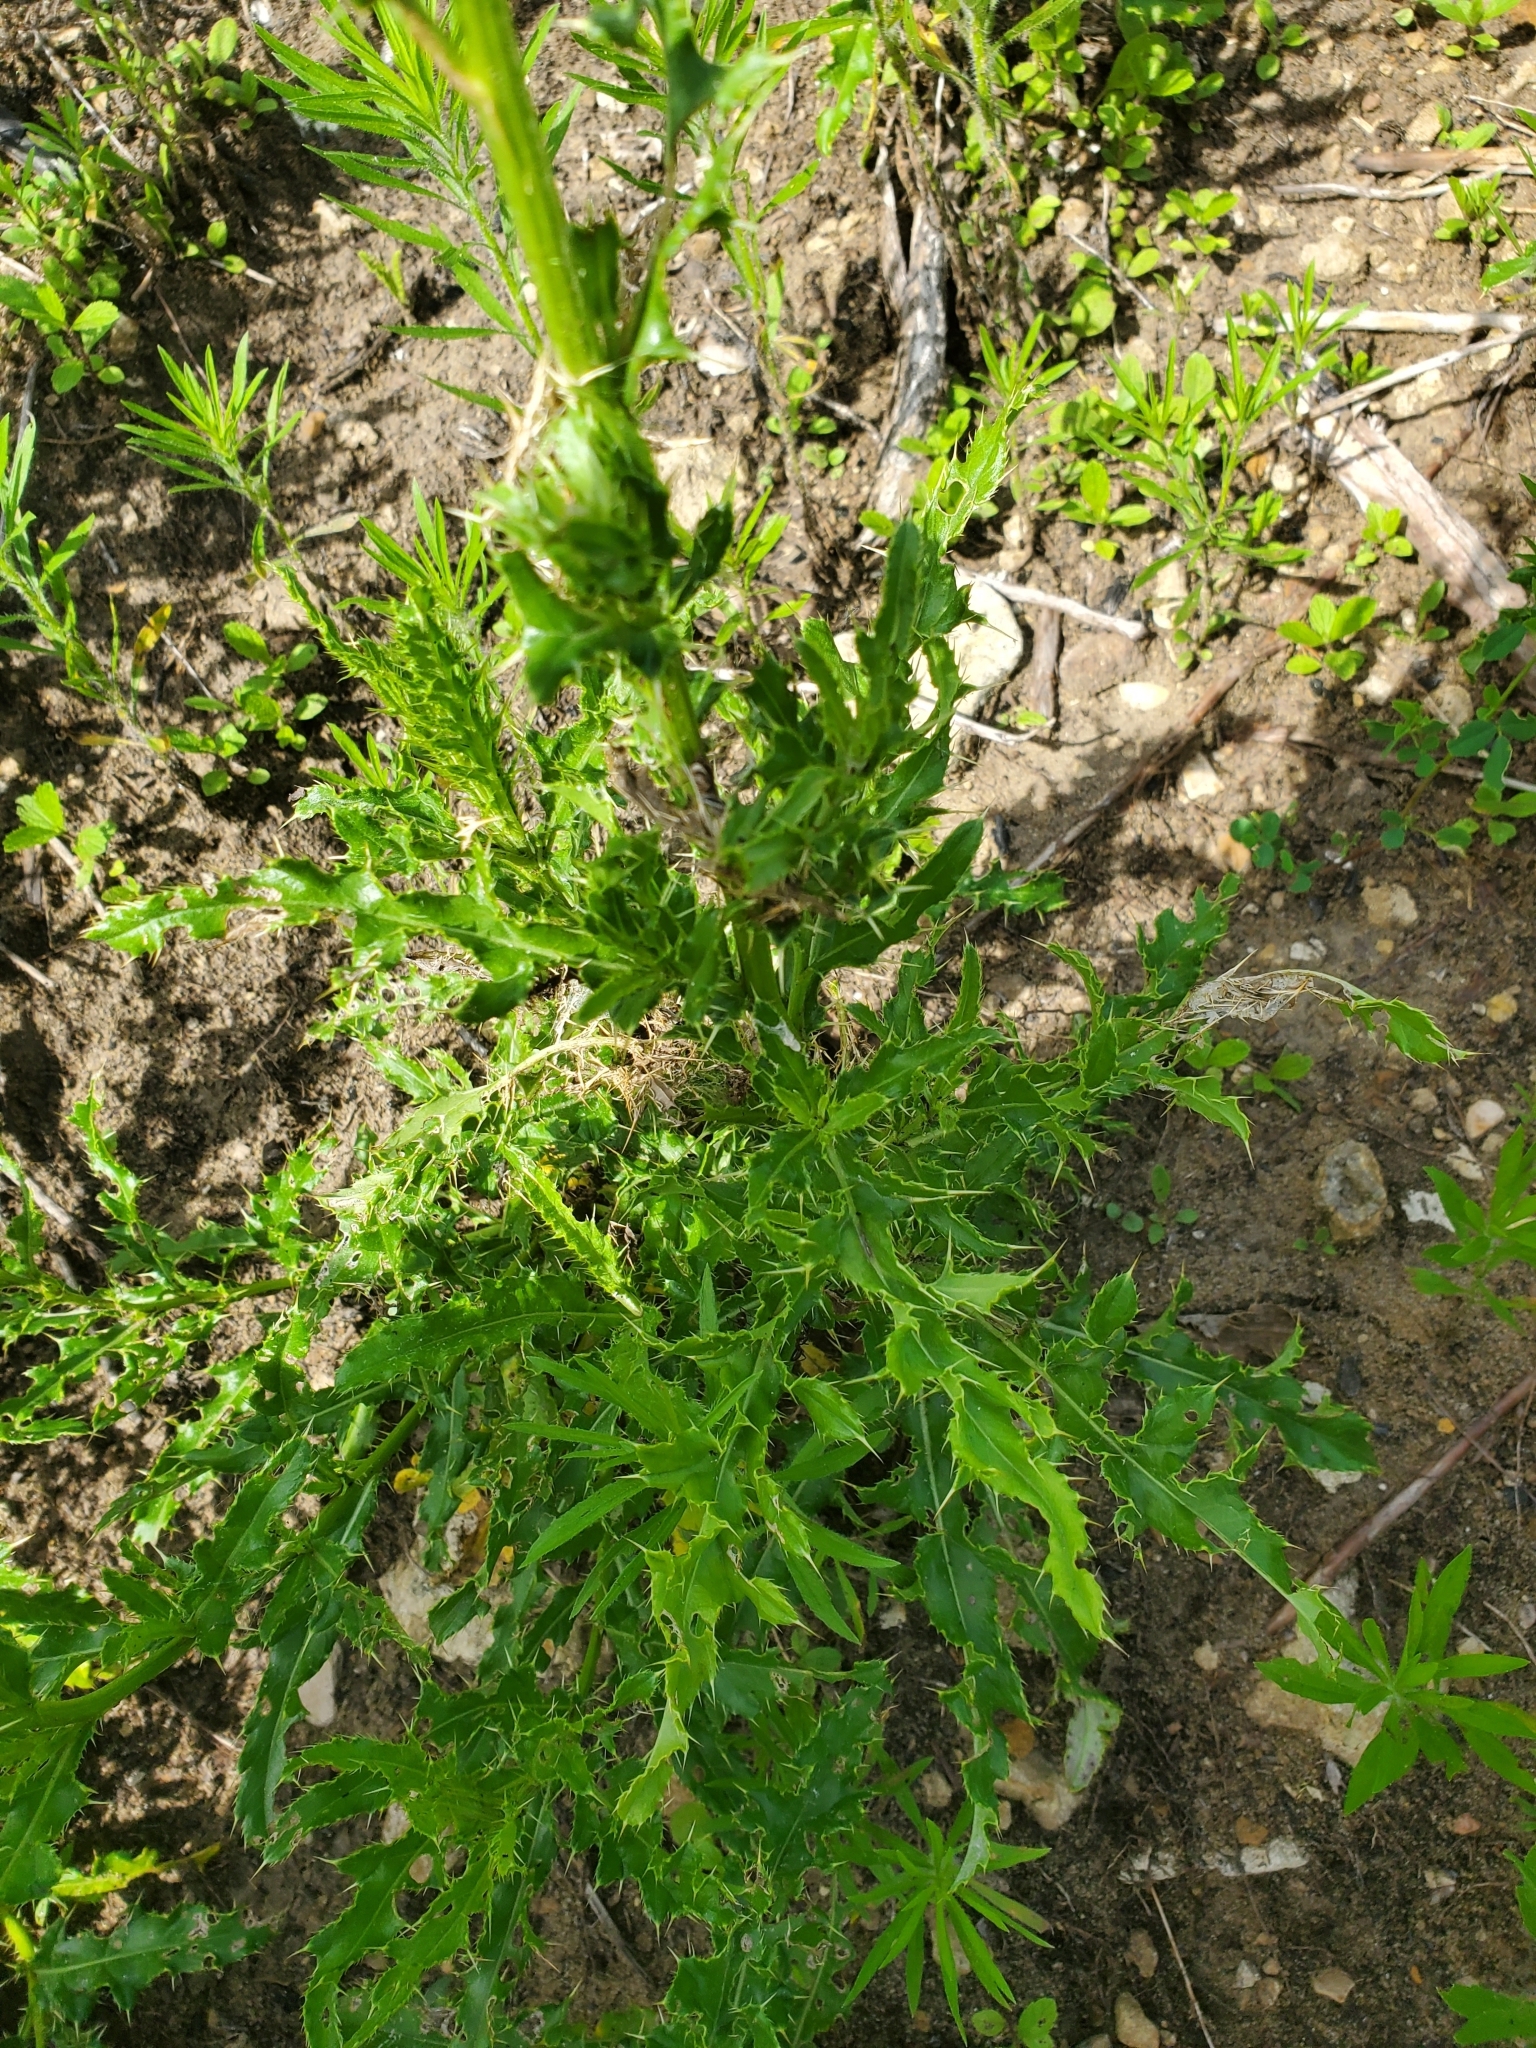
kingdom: Plantae
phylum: Tracheophyta
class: Magnoliopsida
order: Asterales
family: Asteraceae
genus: Cirsium
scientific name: Cirsium arvense
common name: Creeping thistle
